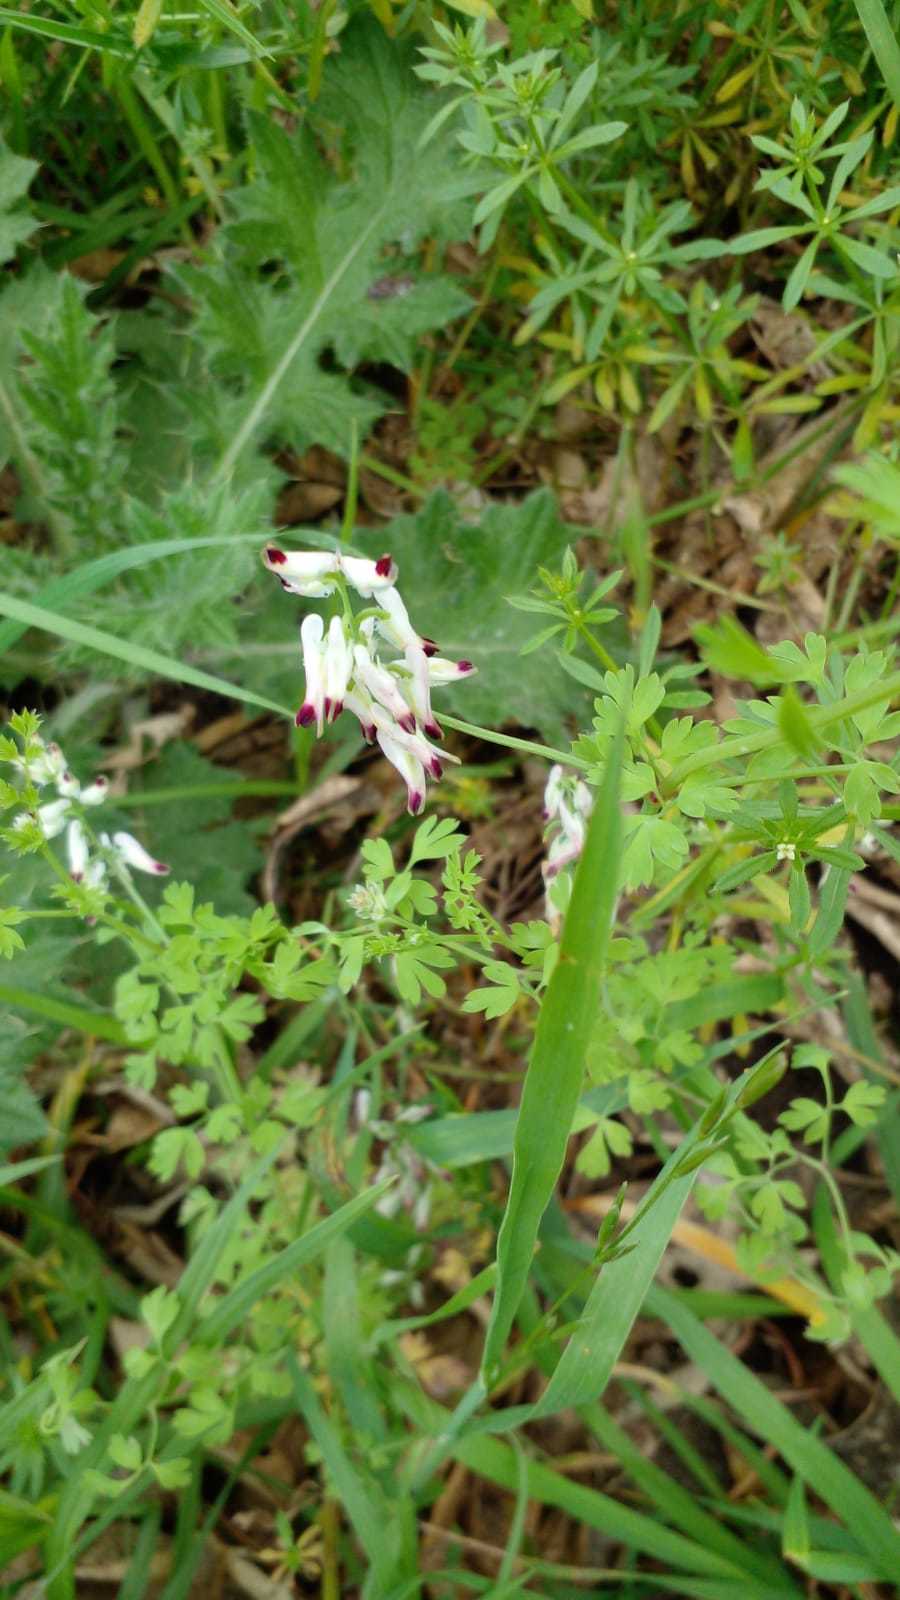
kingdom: Plantae
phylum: Tracheophyta
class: Magnoliopsida
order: Ranunculales
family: Papaveraceae
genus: Fumaria
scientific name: Fumaria capreolata
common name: White ramping-fumitory
